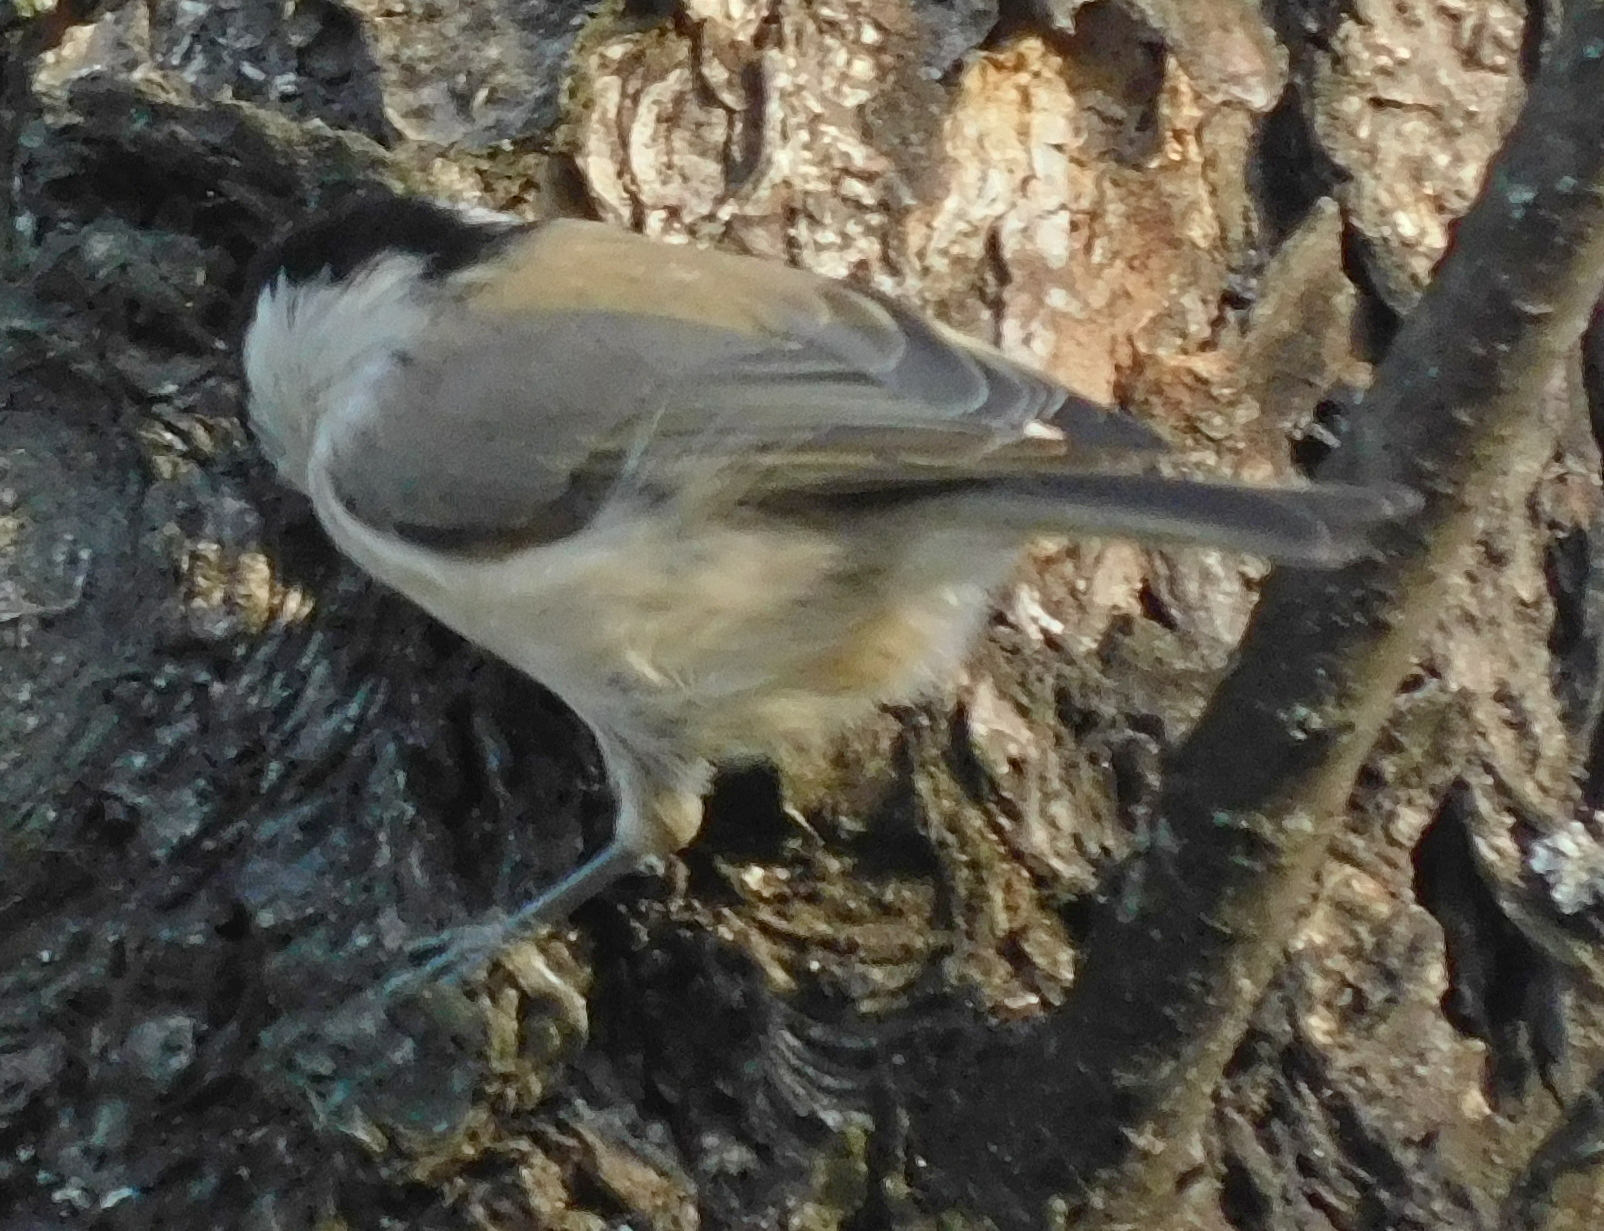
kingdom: Animalia
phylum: Chordata
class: Aves
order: Passeriformes
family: Paridae
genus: Poecile
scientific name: Poecile palustris
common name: Marsh tit
